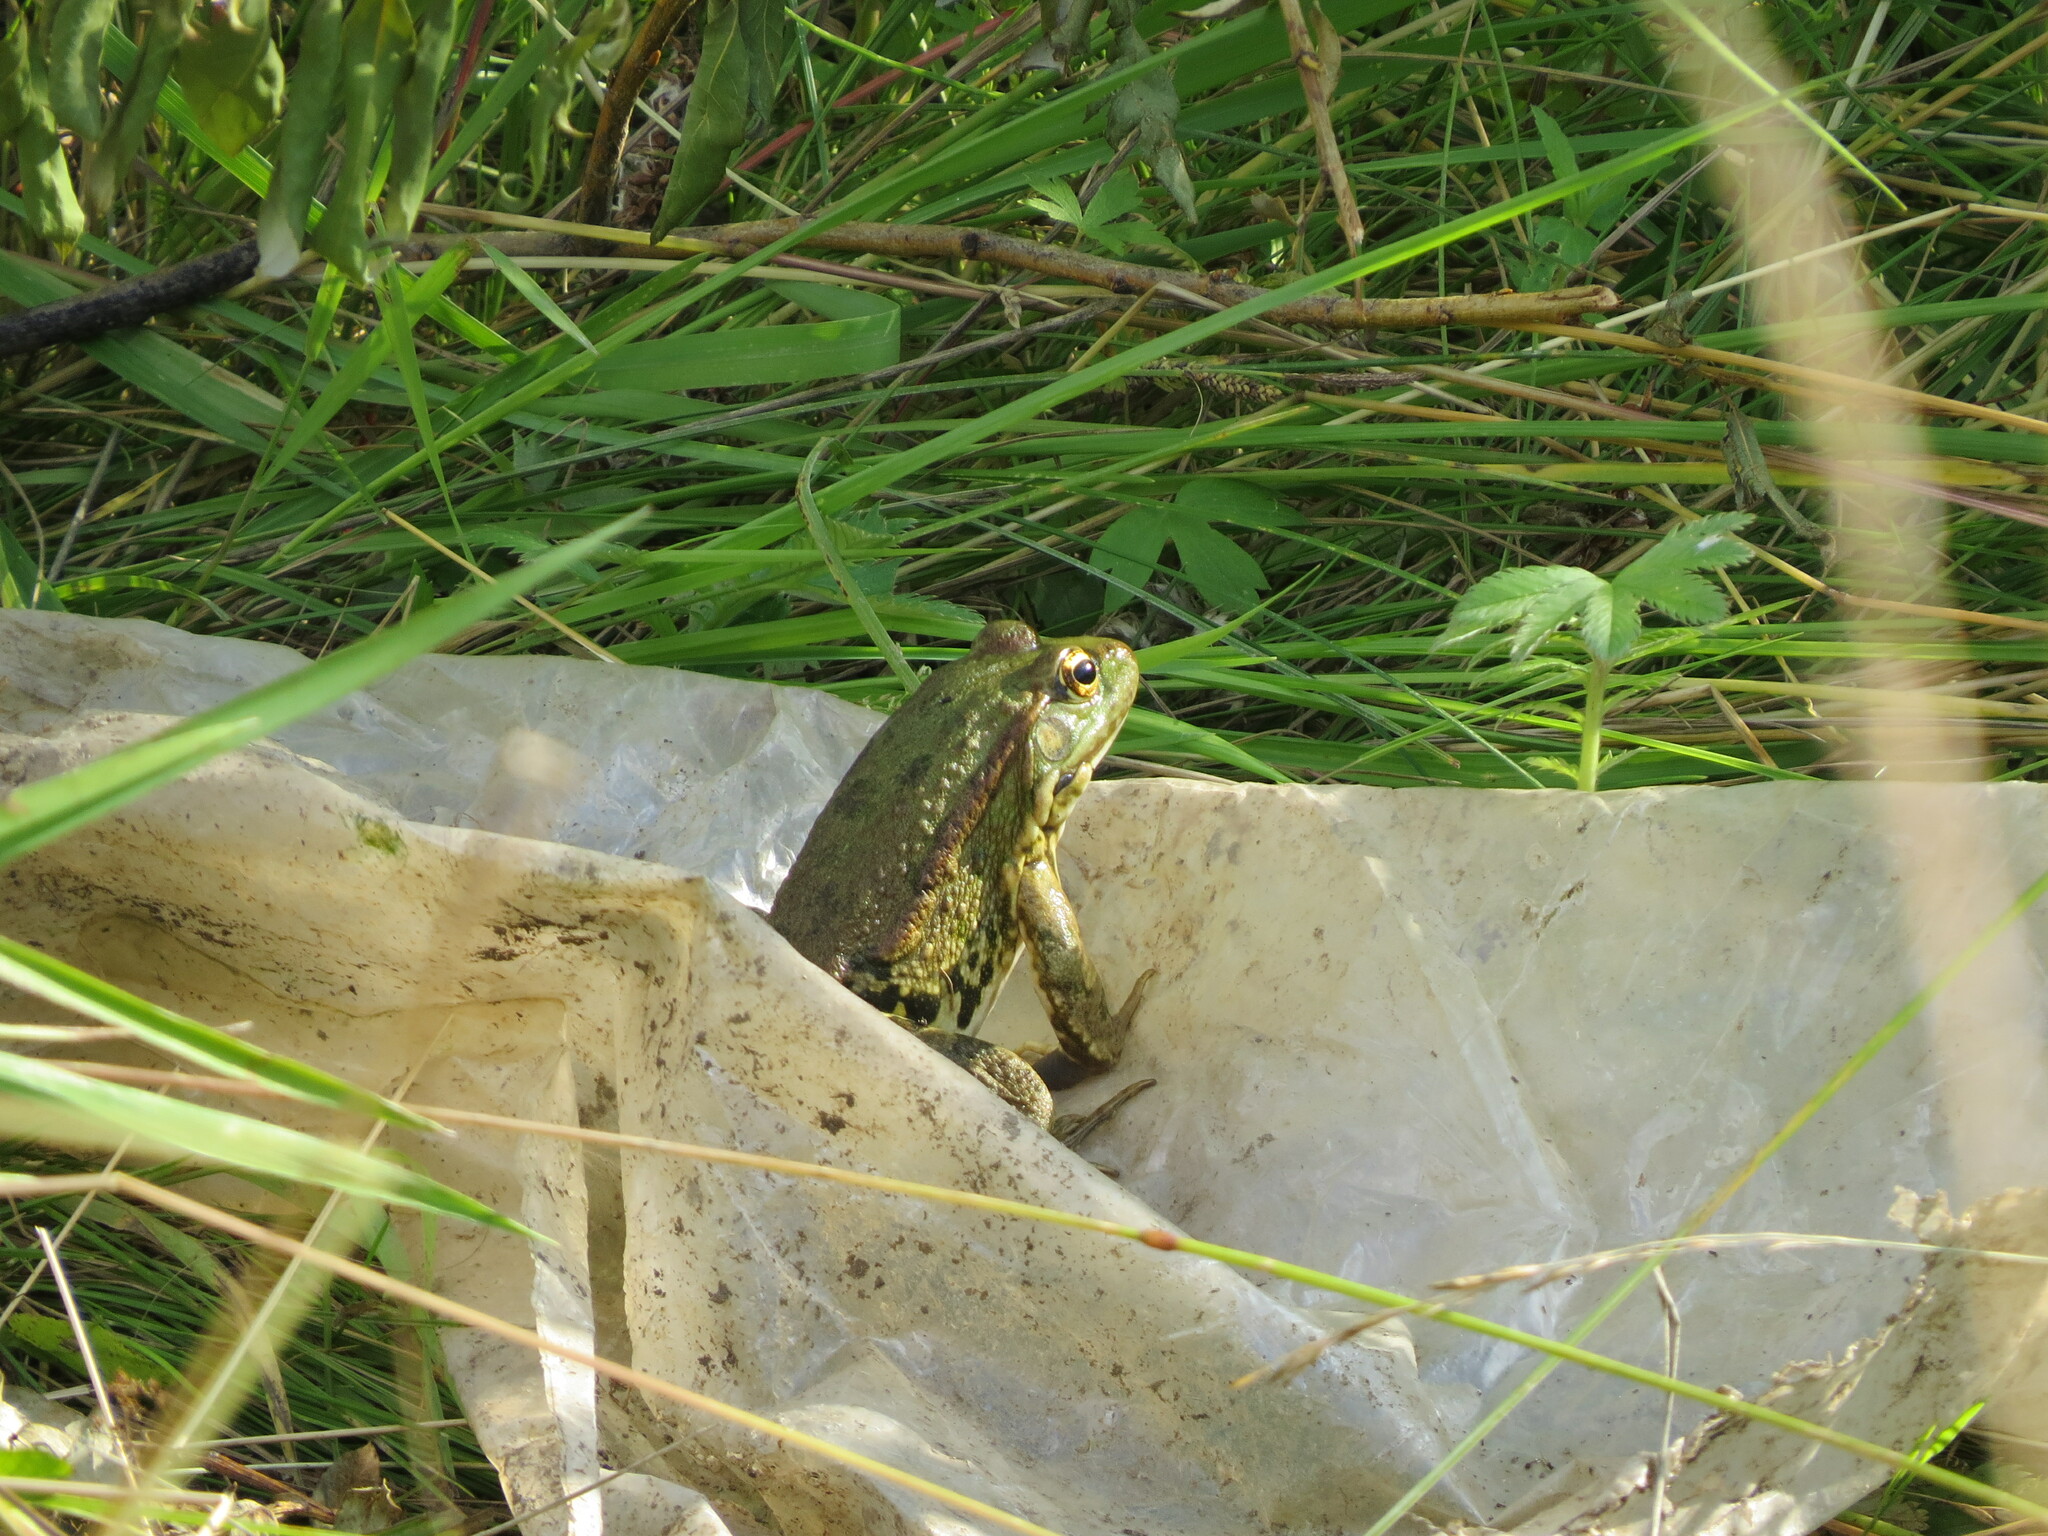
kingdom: Animalia
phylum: Chordata
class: Amphibia
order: Anura
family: Ranidae
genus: Pelophylax
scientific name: Pelophylax ridibundus
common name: Marsh frog
